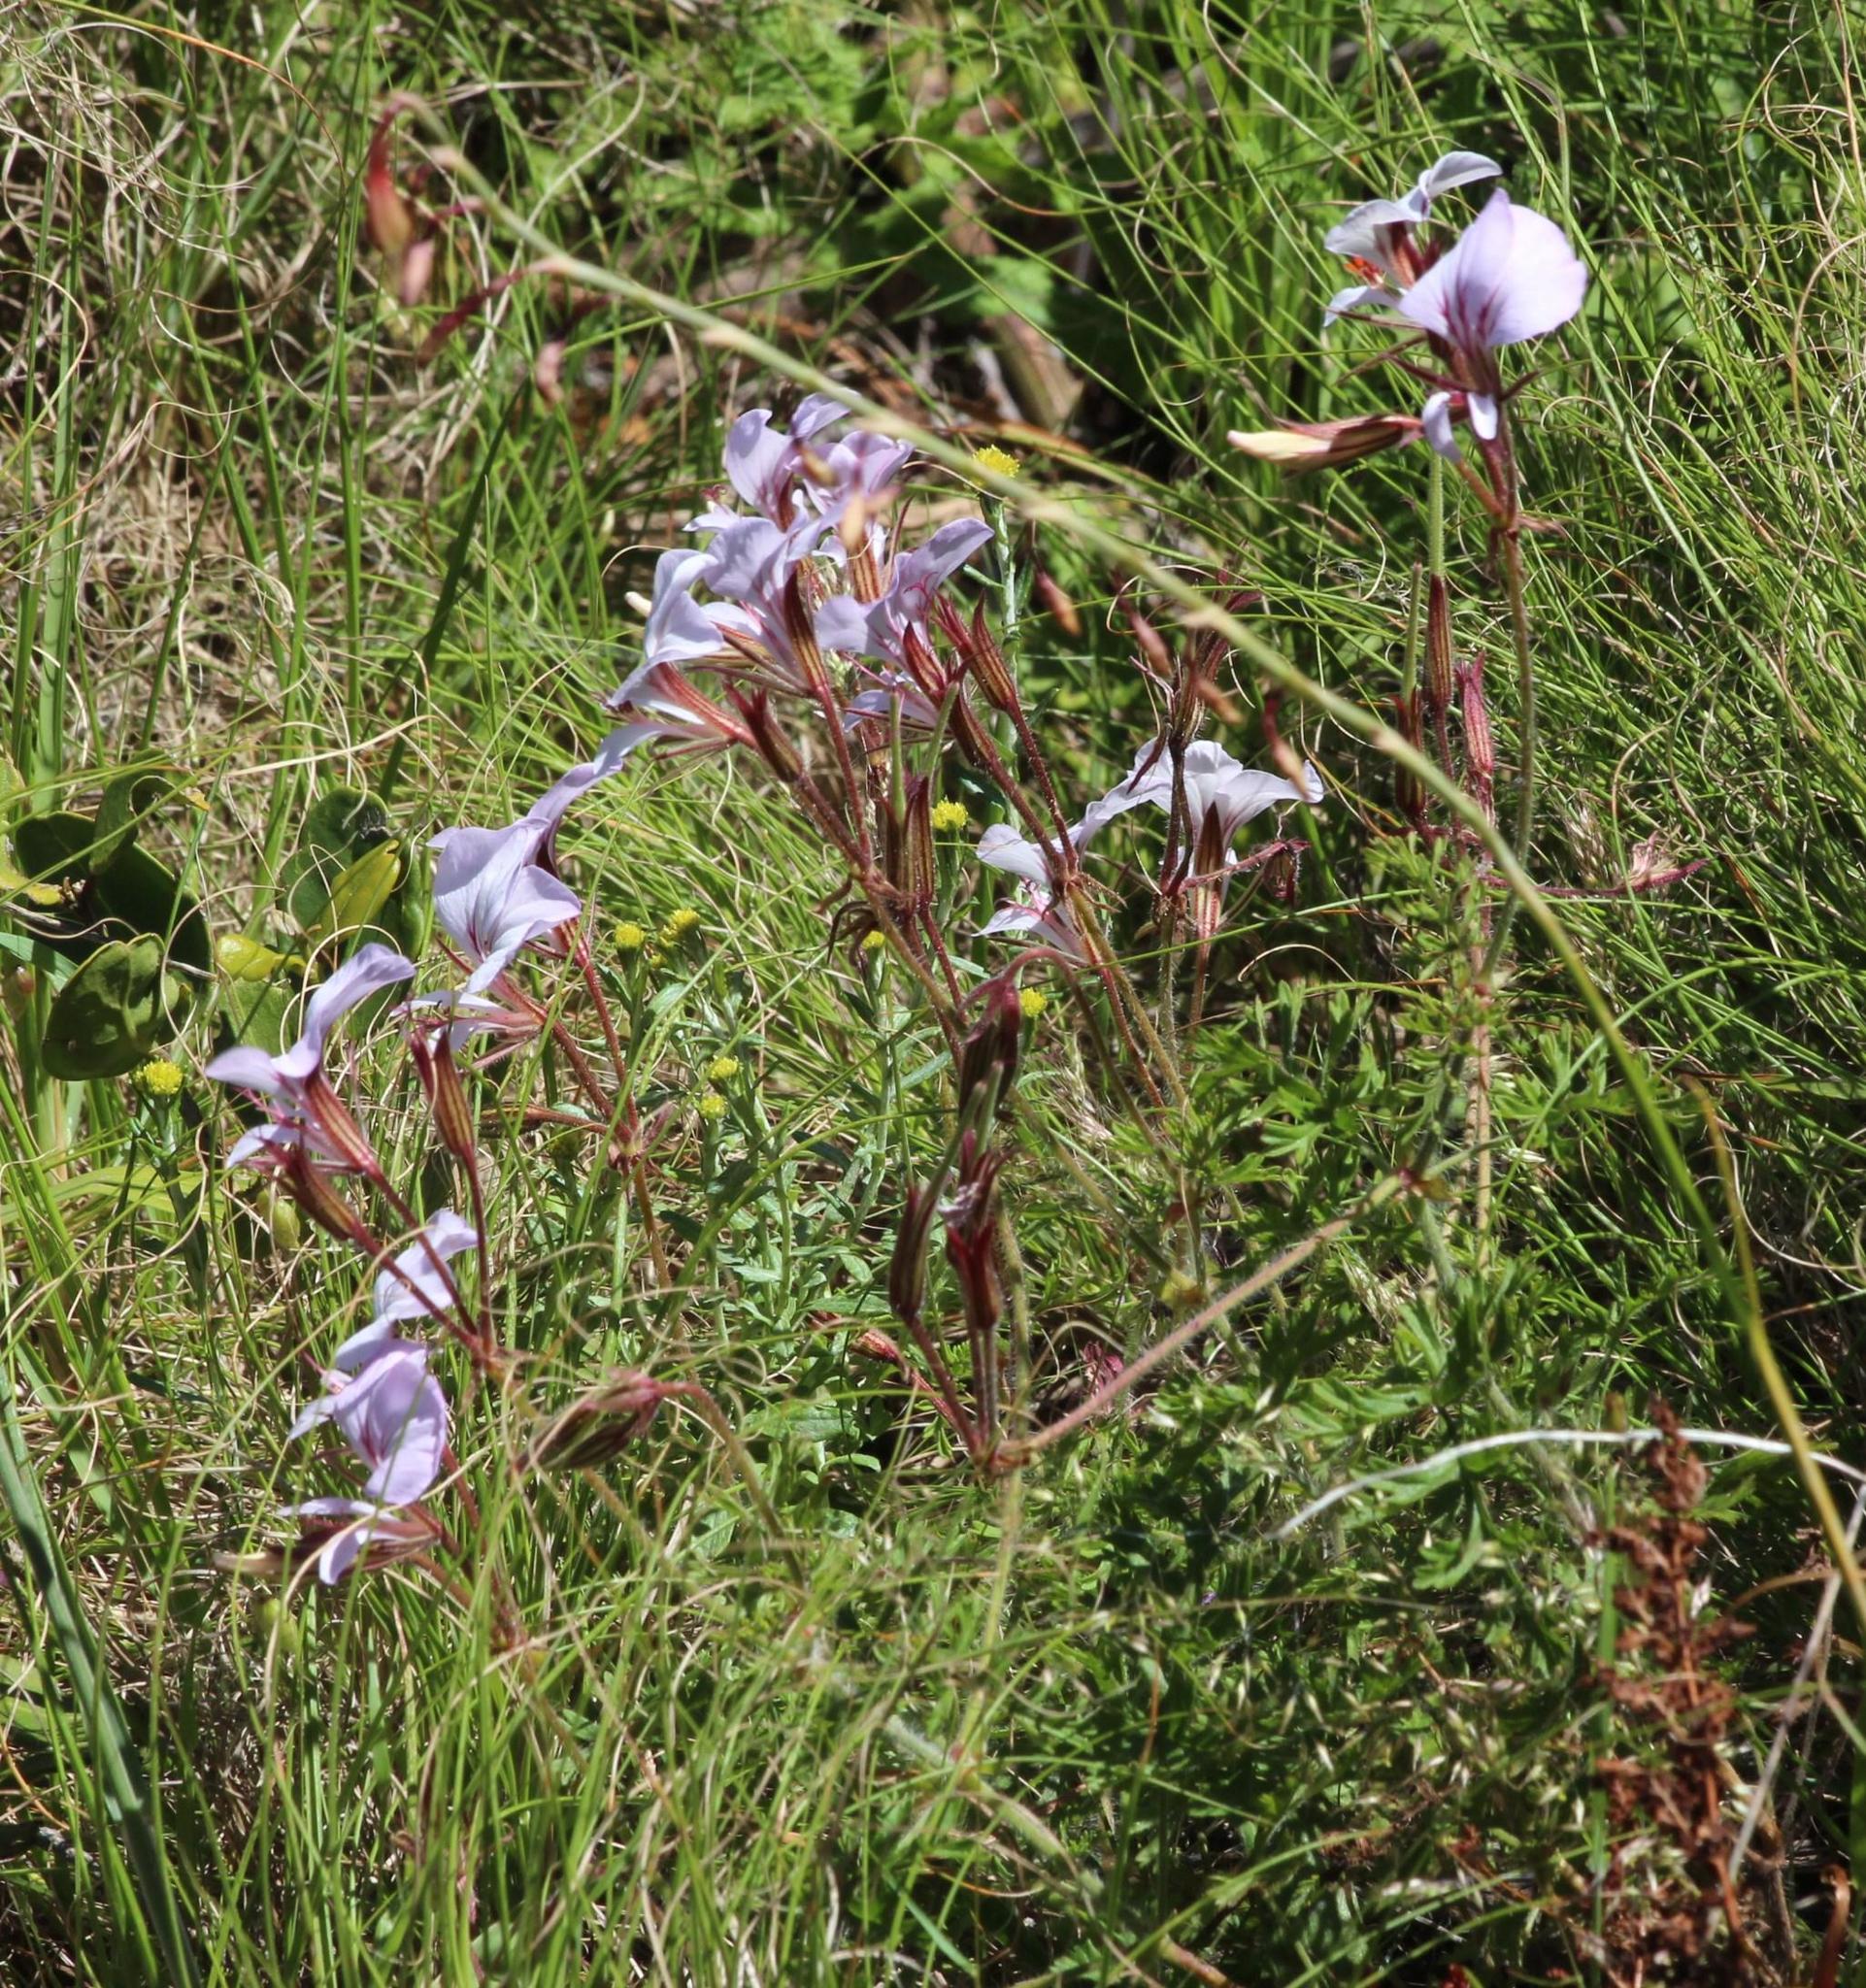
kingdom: Plantae
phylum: Tracheophyta
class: Magnoliopsida
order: Geraniales
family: Geraniaceae
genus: Pelargonium
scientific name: Pelargonium longicaule
